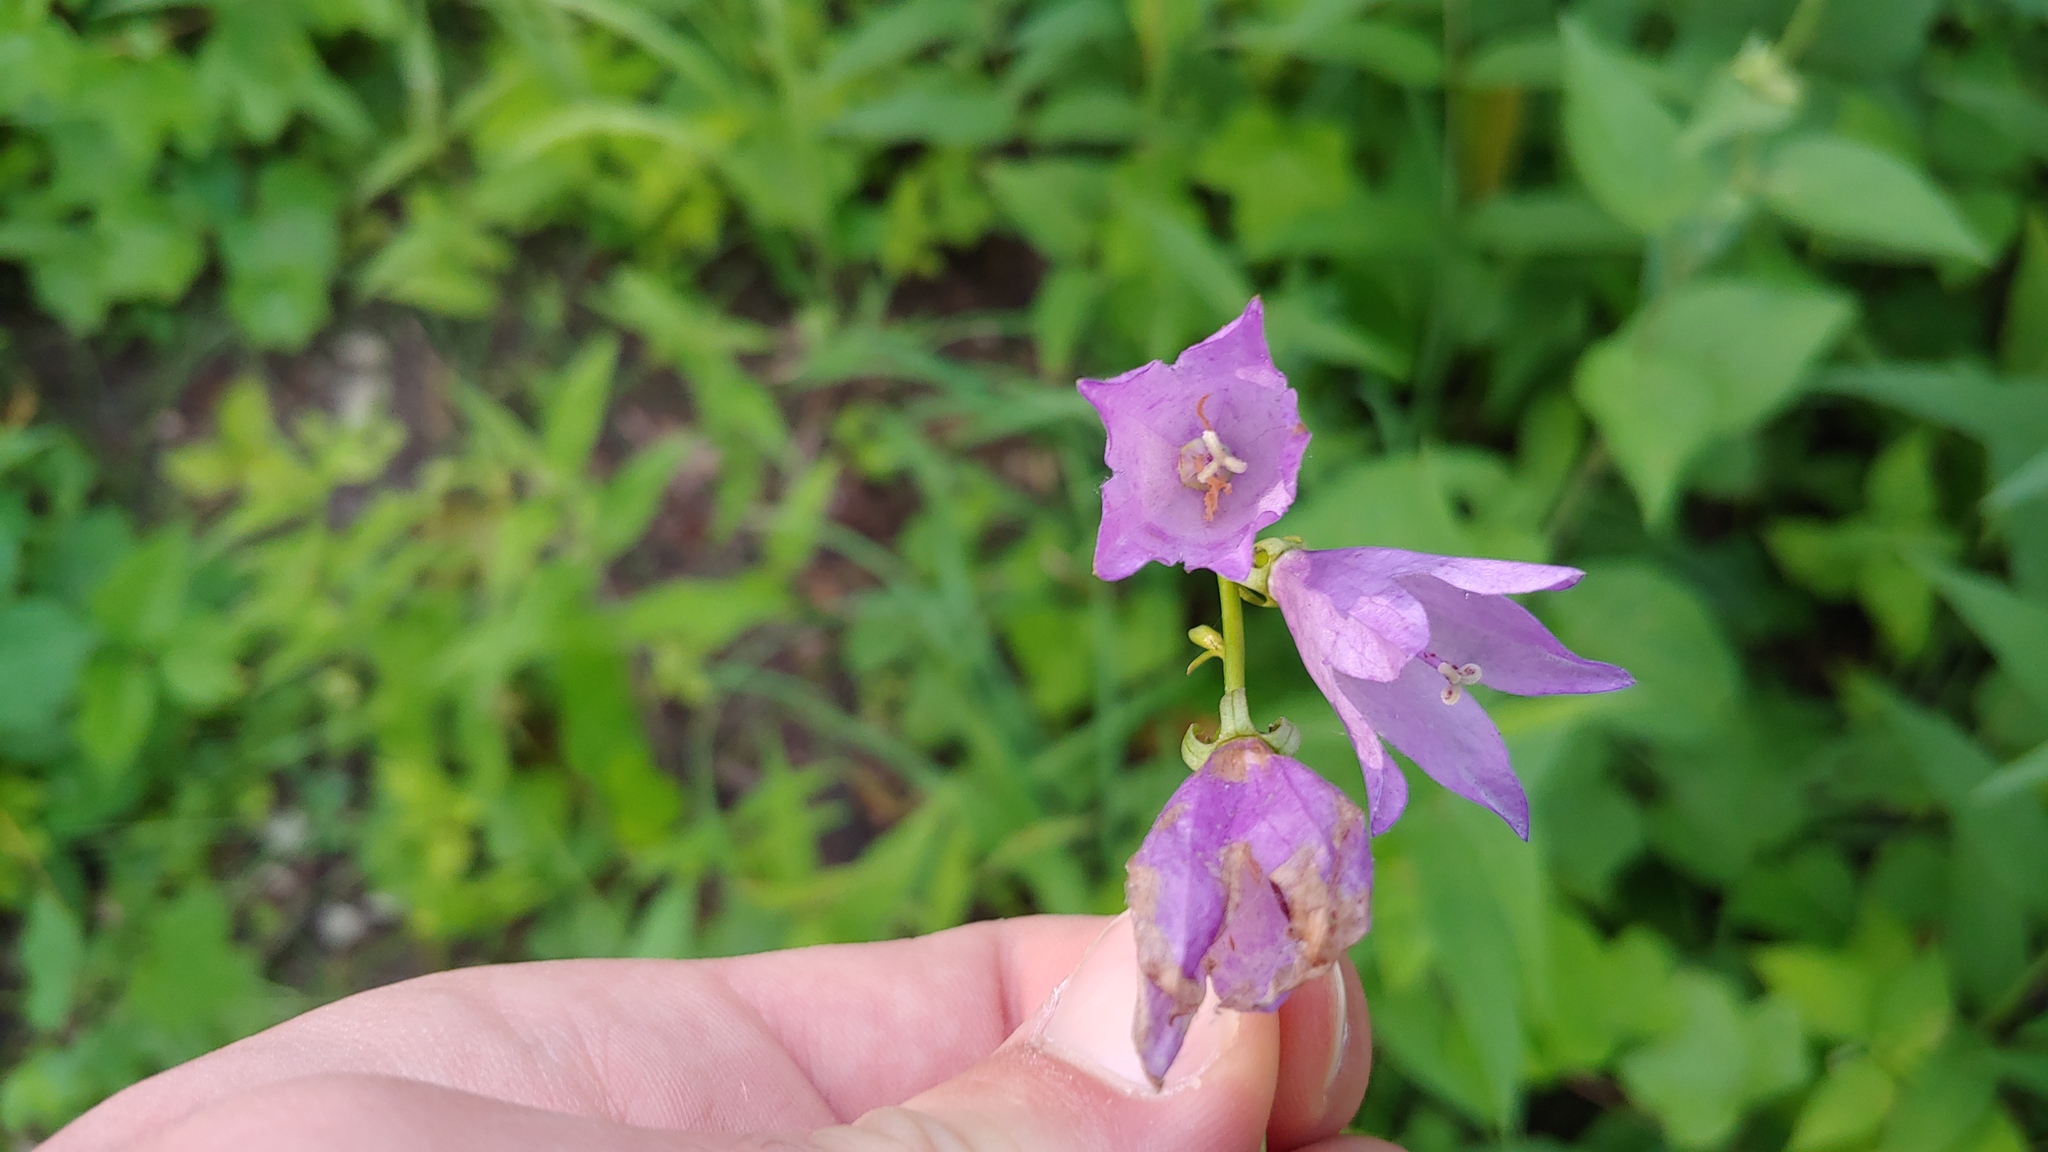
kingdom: Plantae
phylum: Tracheophyta
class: Magnoliopsida
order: Asterales
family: Campanulaceae
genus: Campanula
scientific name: Campanula rapunculoides
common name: Creeping bellflower
